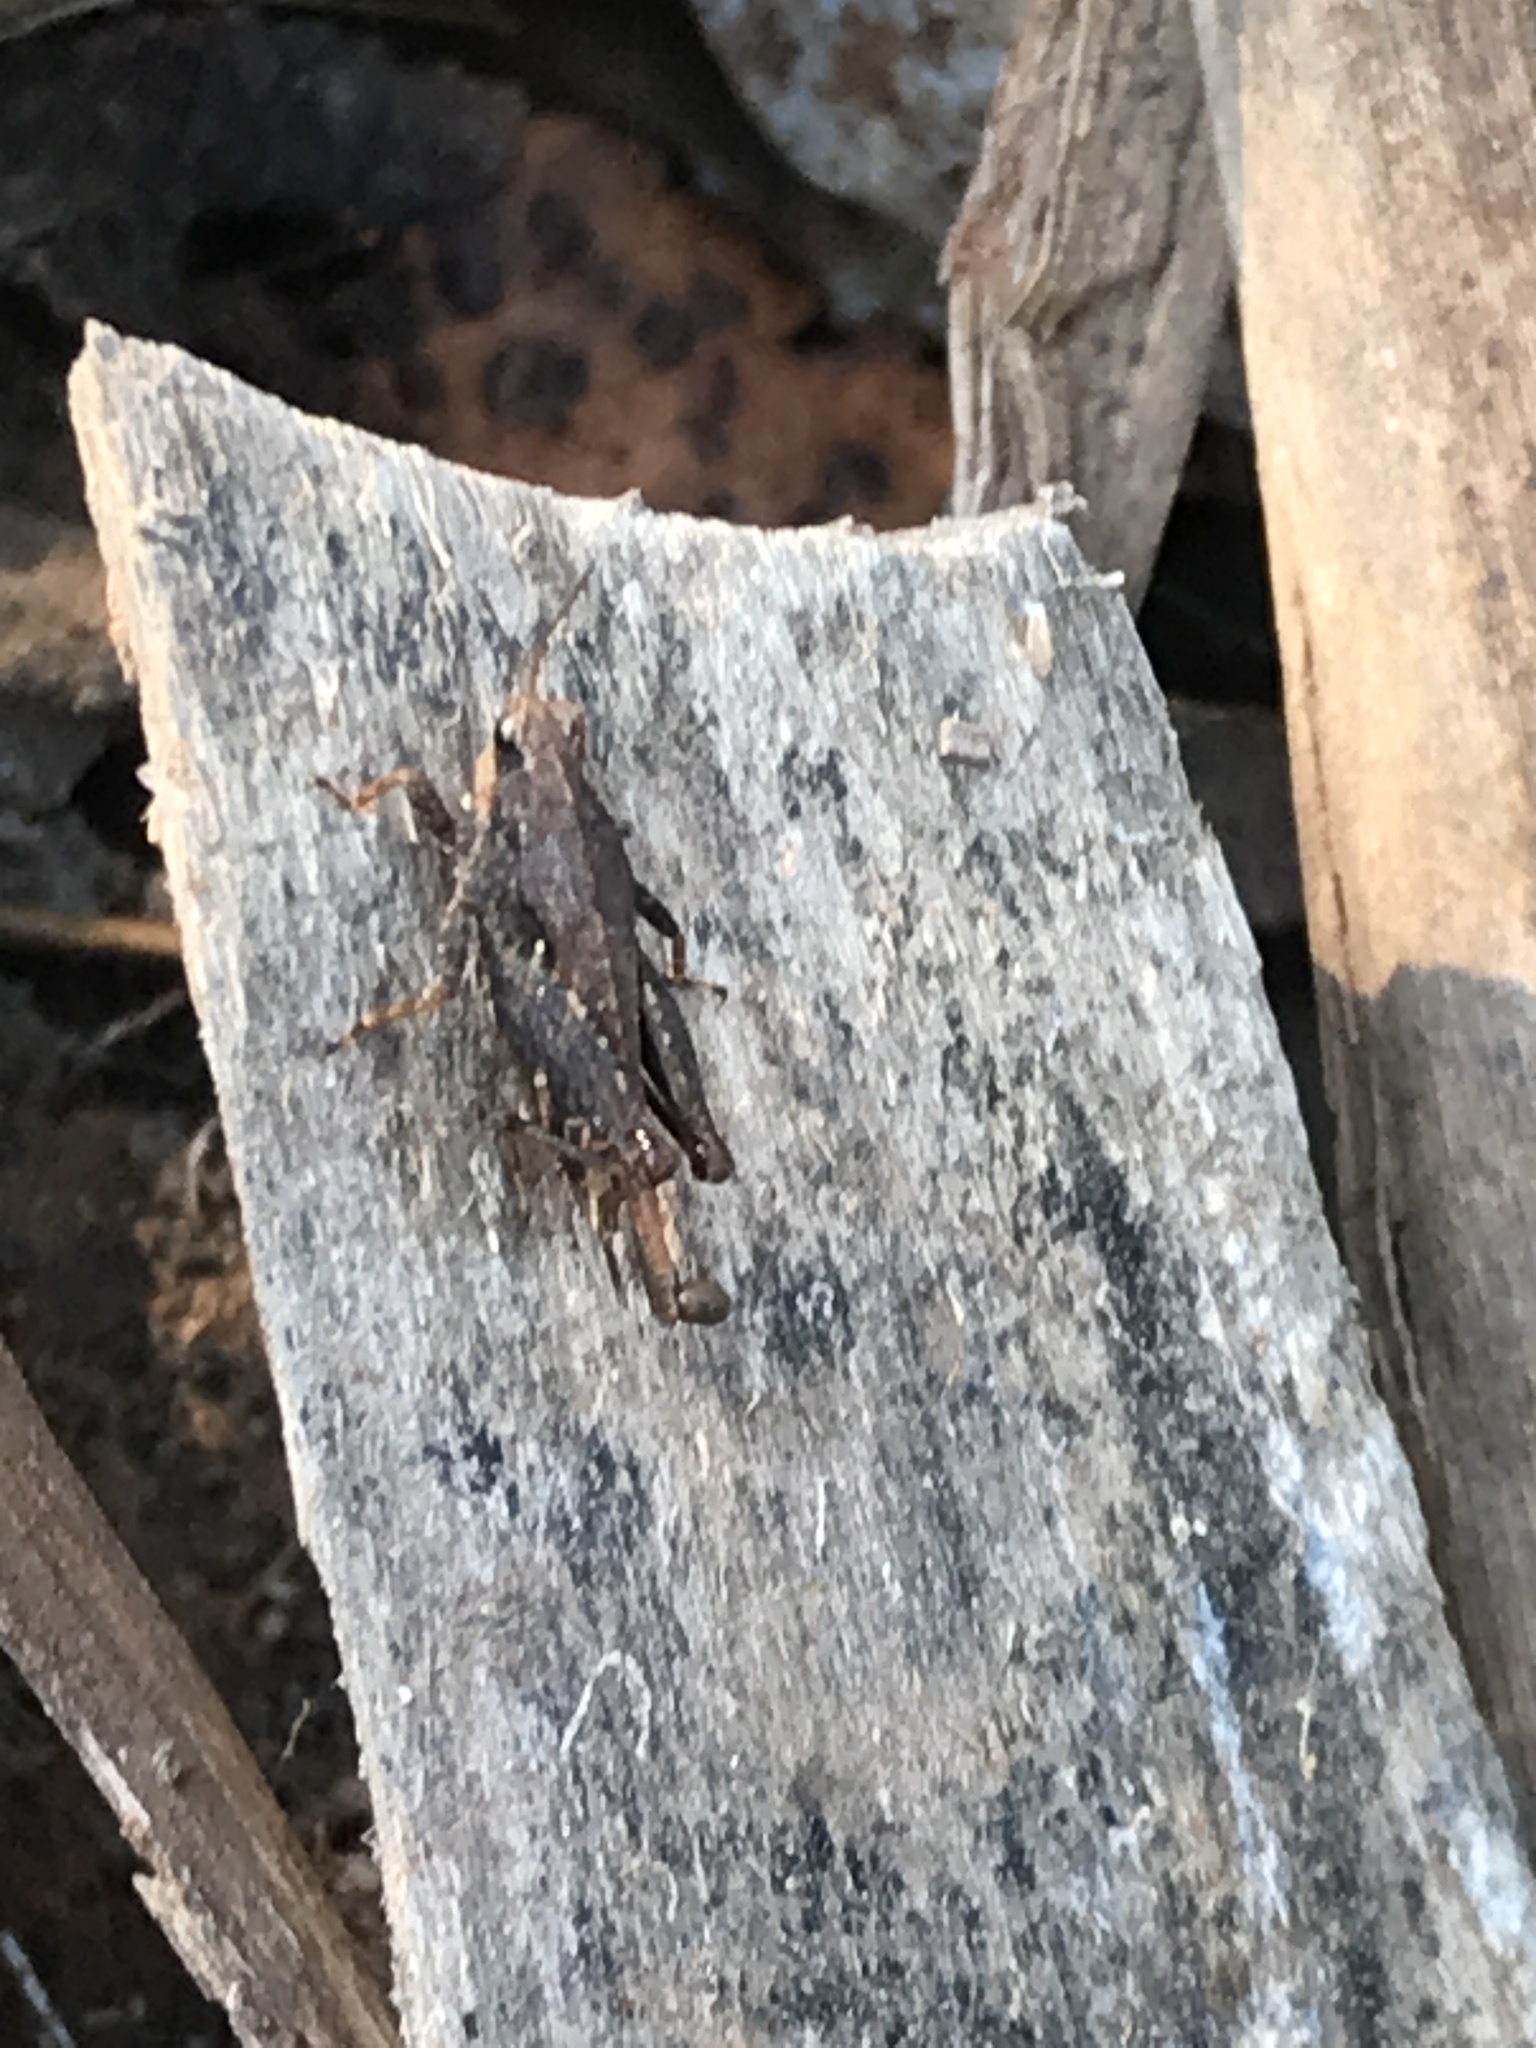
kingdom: Animalia
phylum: Arthropoda
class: Insecta
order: Orthoptera
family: Tetrigidae
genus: Tettigidea
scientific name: Tettigidea laterale
